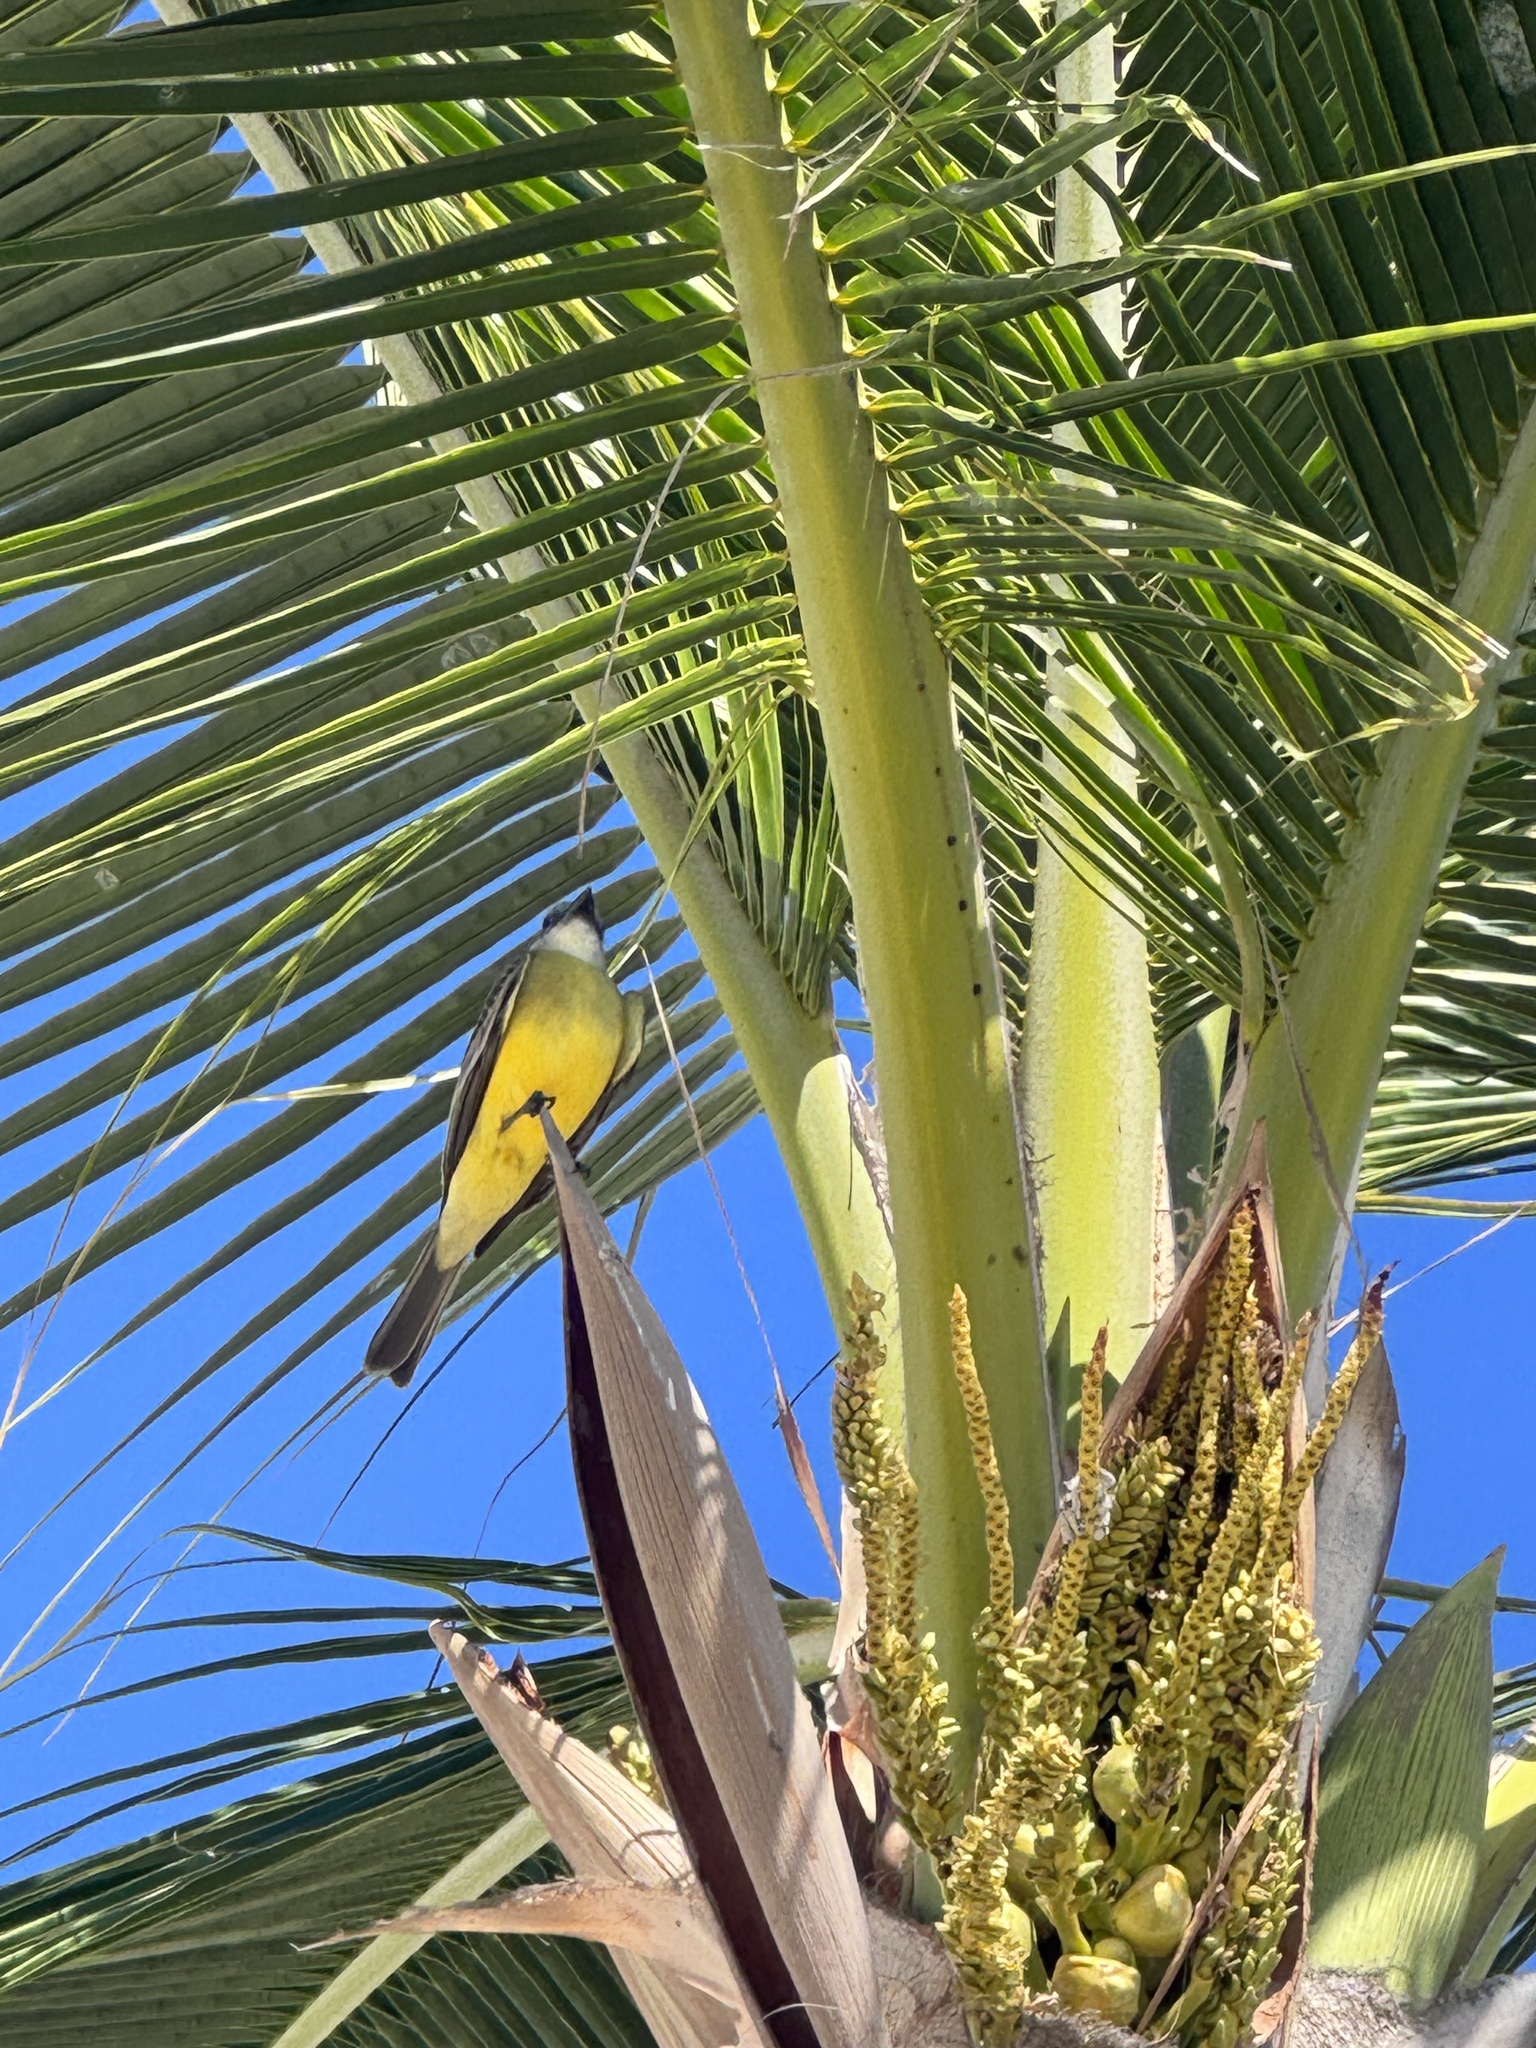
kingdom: Animalia
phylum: Chordata
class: Aves
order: Passeriformes
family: Tyrannidae
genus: Tyrannus
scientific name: Tyrannus melancholicus
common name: Tropical kingbird
